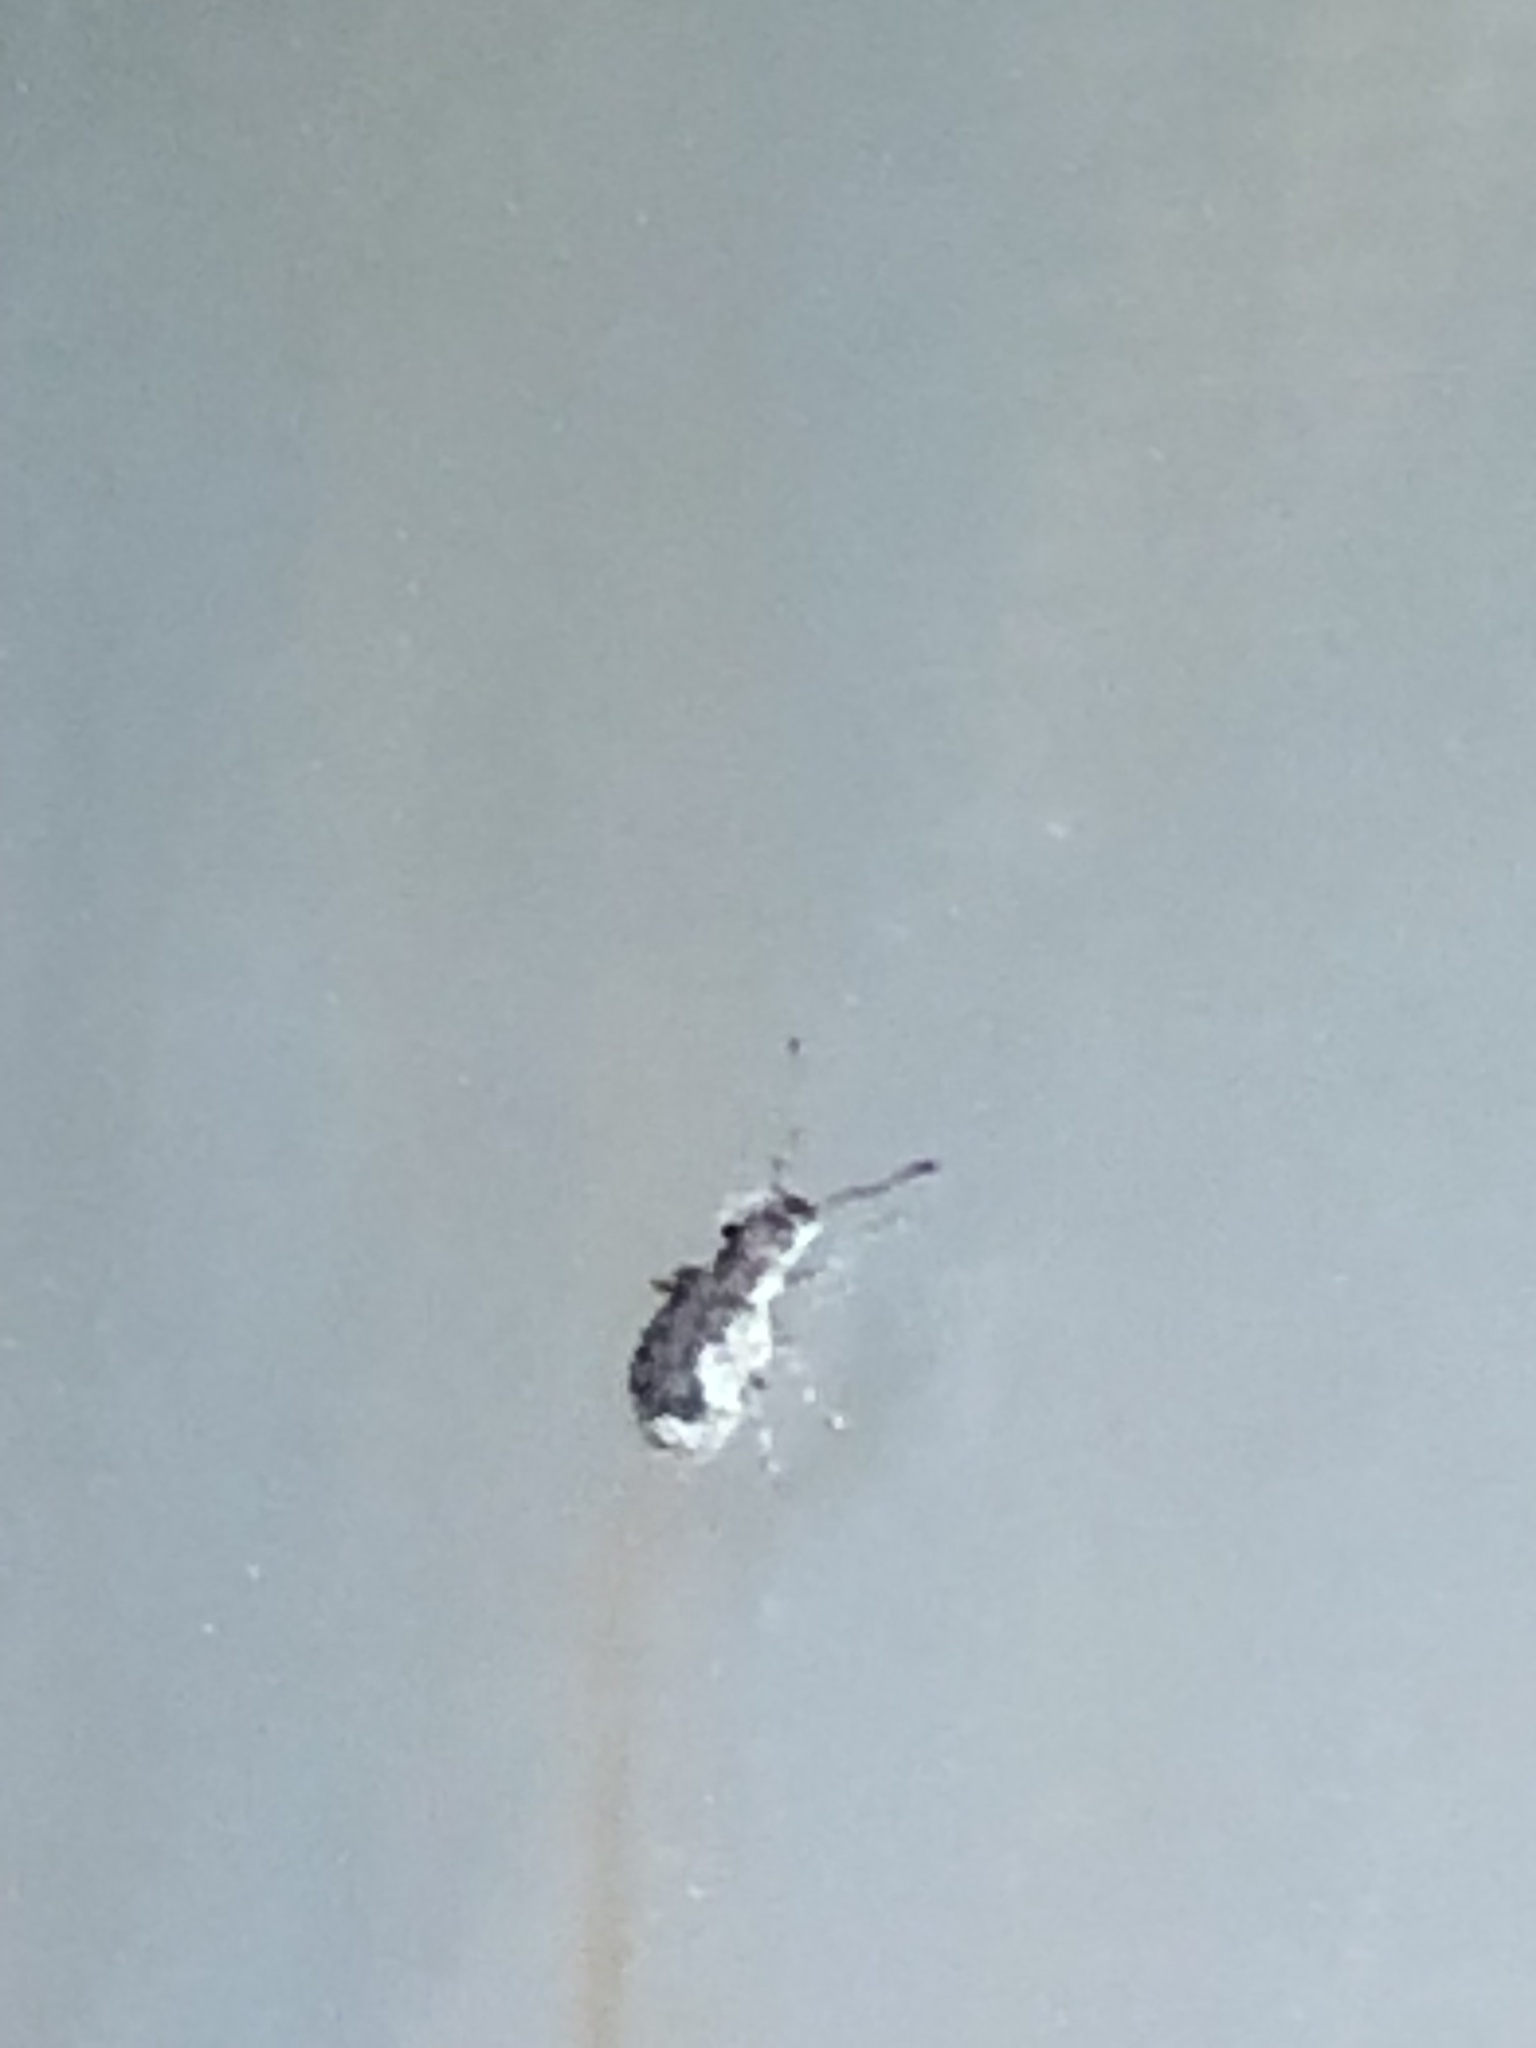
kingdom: Animalia
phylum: Arthropoda
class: Insecta
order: Coleoptera
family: Curculionidae
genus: Pseudoedophrys
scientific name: Pseudoedophrys hilleri
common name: Weevil
